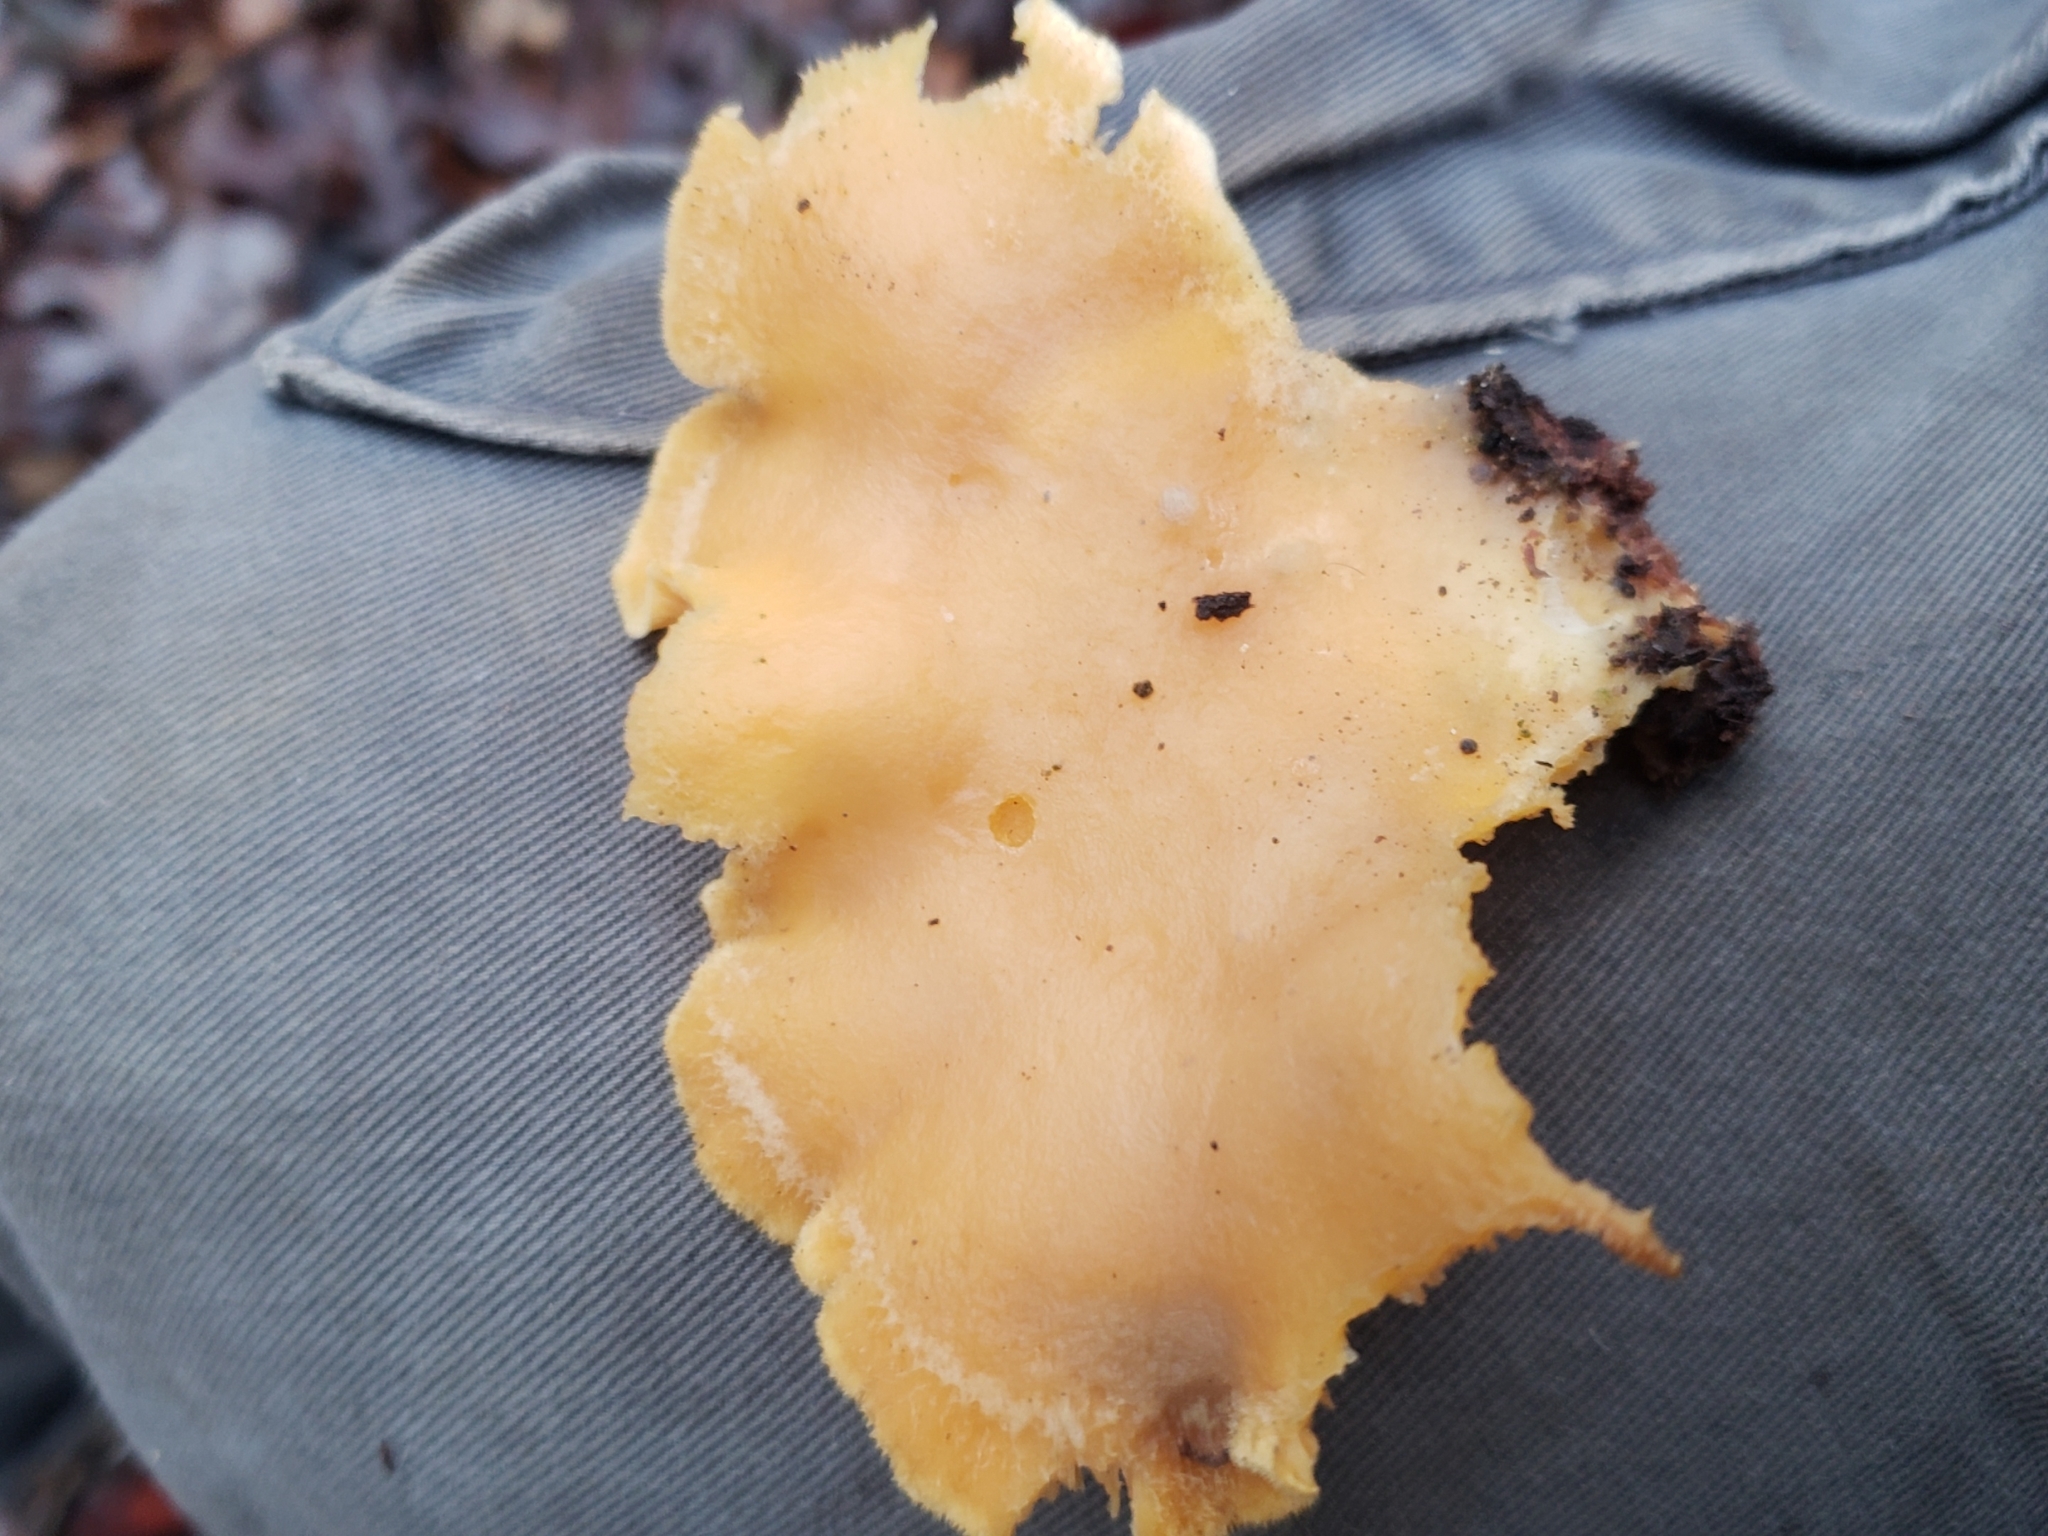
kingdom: Fungi
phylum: Basidiomycota
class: Agaricomycetes
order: Agaricales
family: Phyllotopsidaceae
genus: Phyllotopsis
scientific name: Phyllotopsis nidulans
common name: Orange mock oyster
